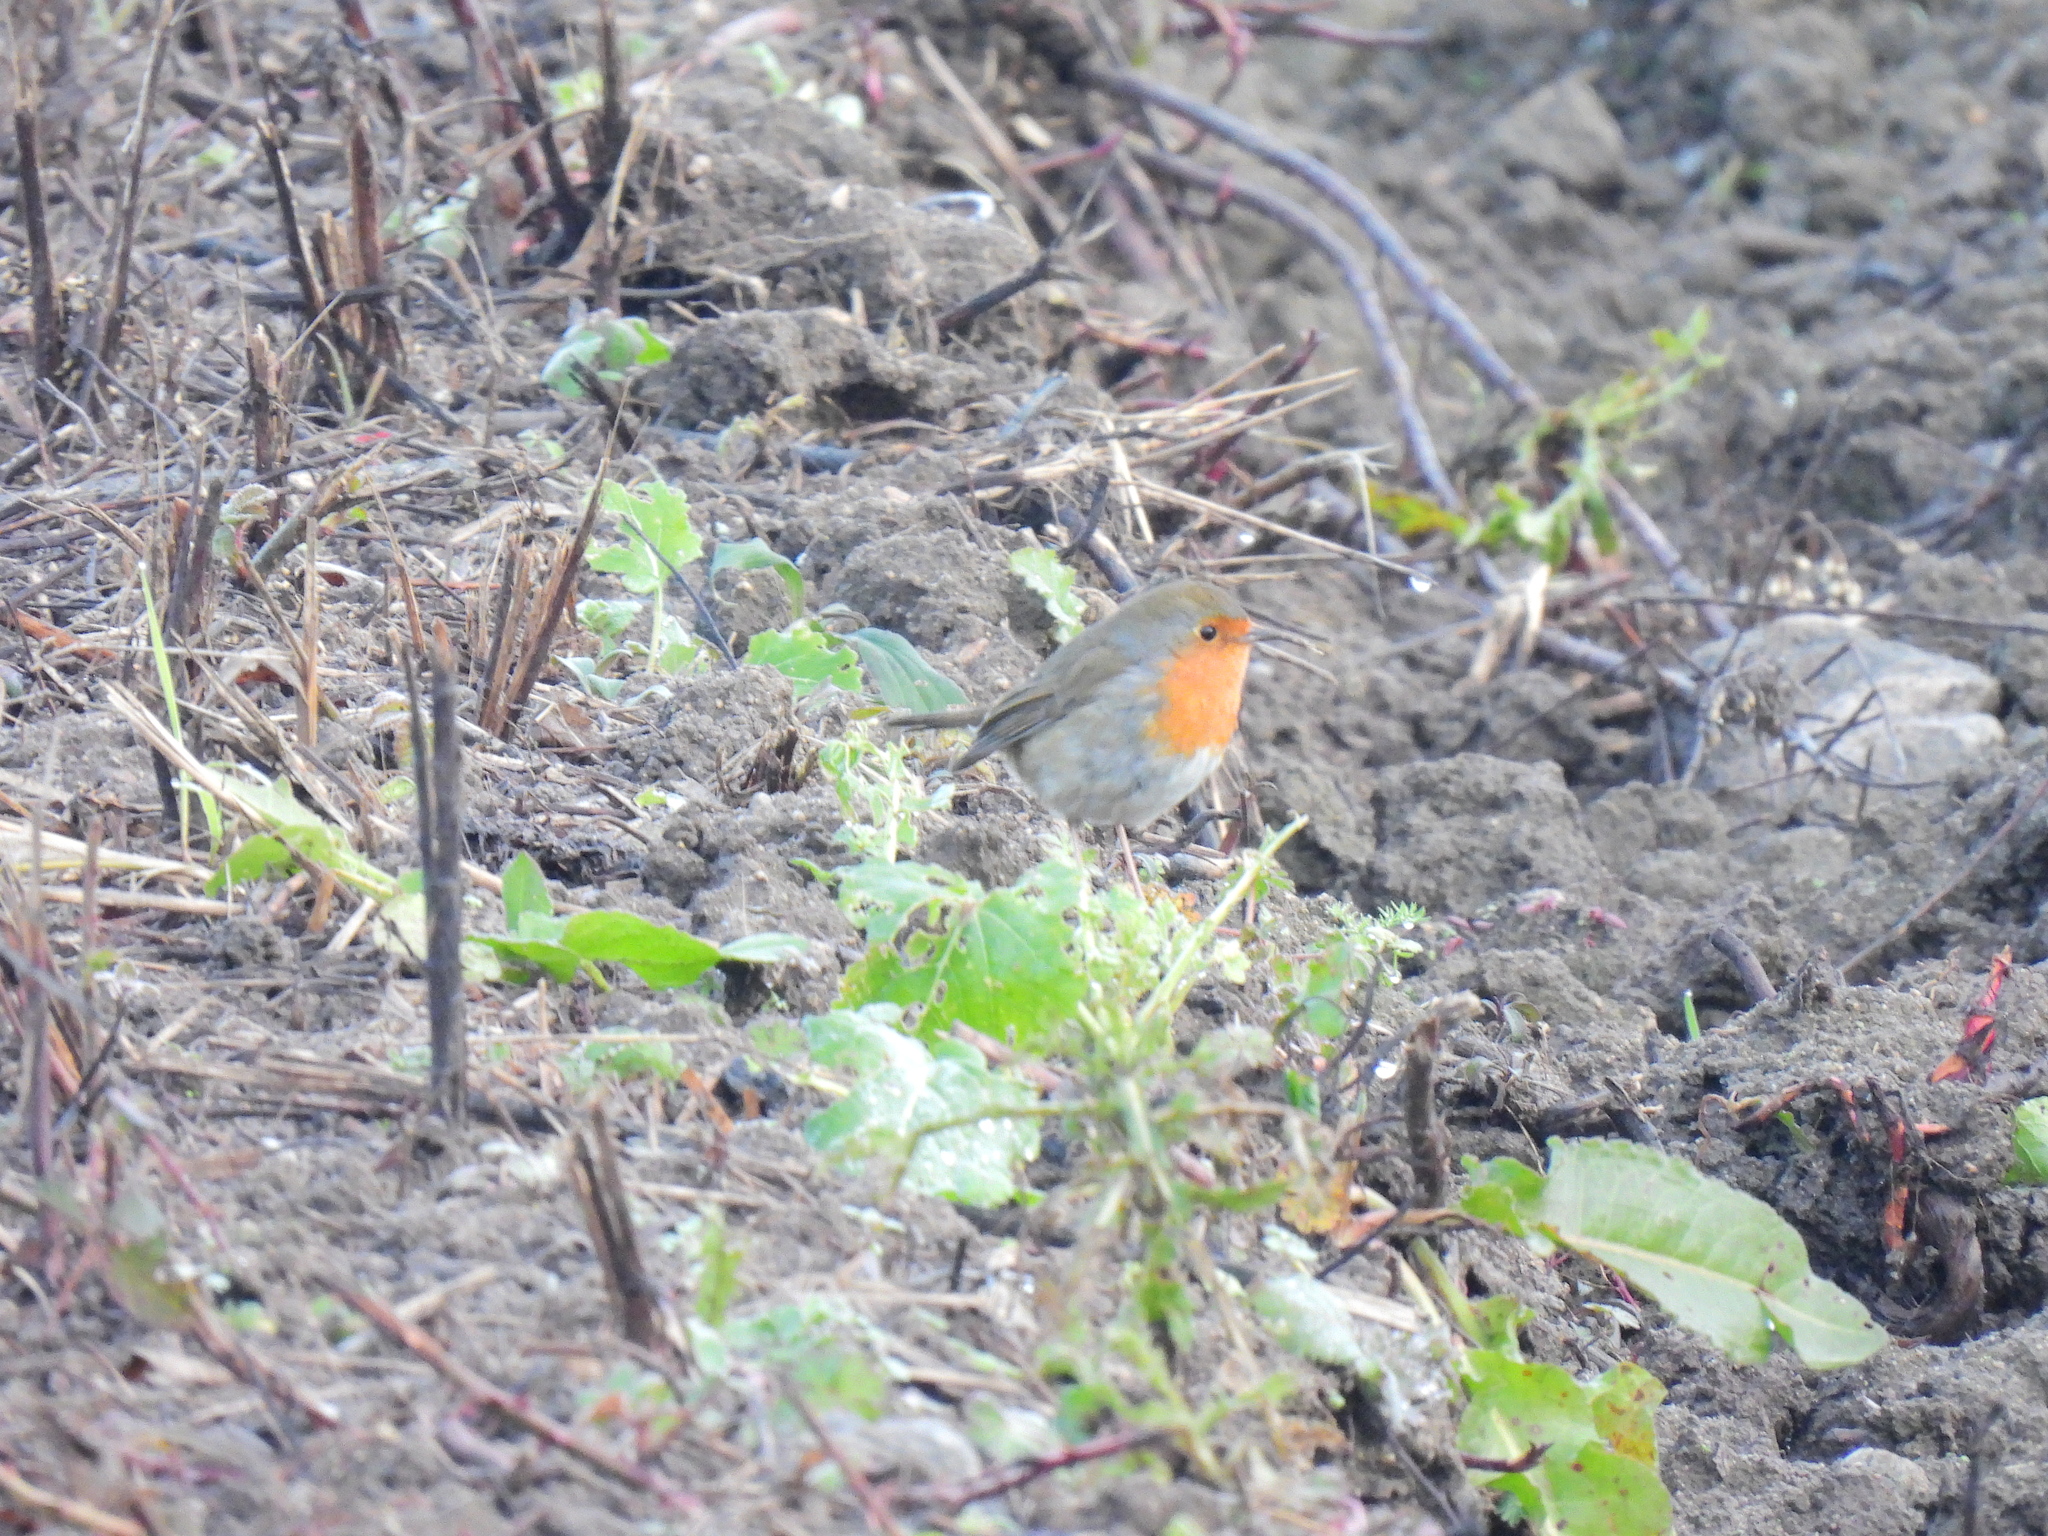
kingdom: Animalia
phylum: Chordata
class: Aves
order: Passeriformes
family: Muscicapidae
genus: Erithacus
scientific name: Erithacus rubecula
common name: European robin
